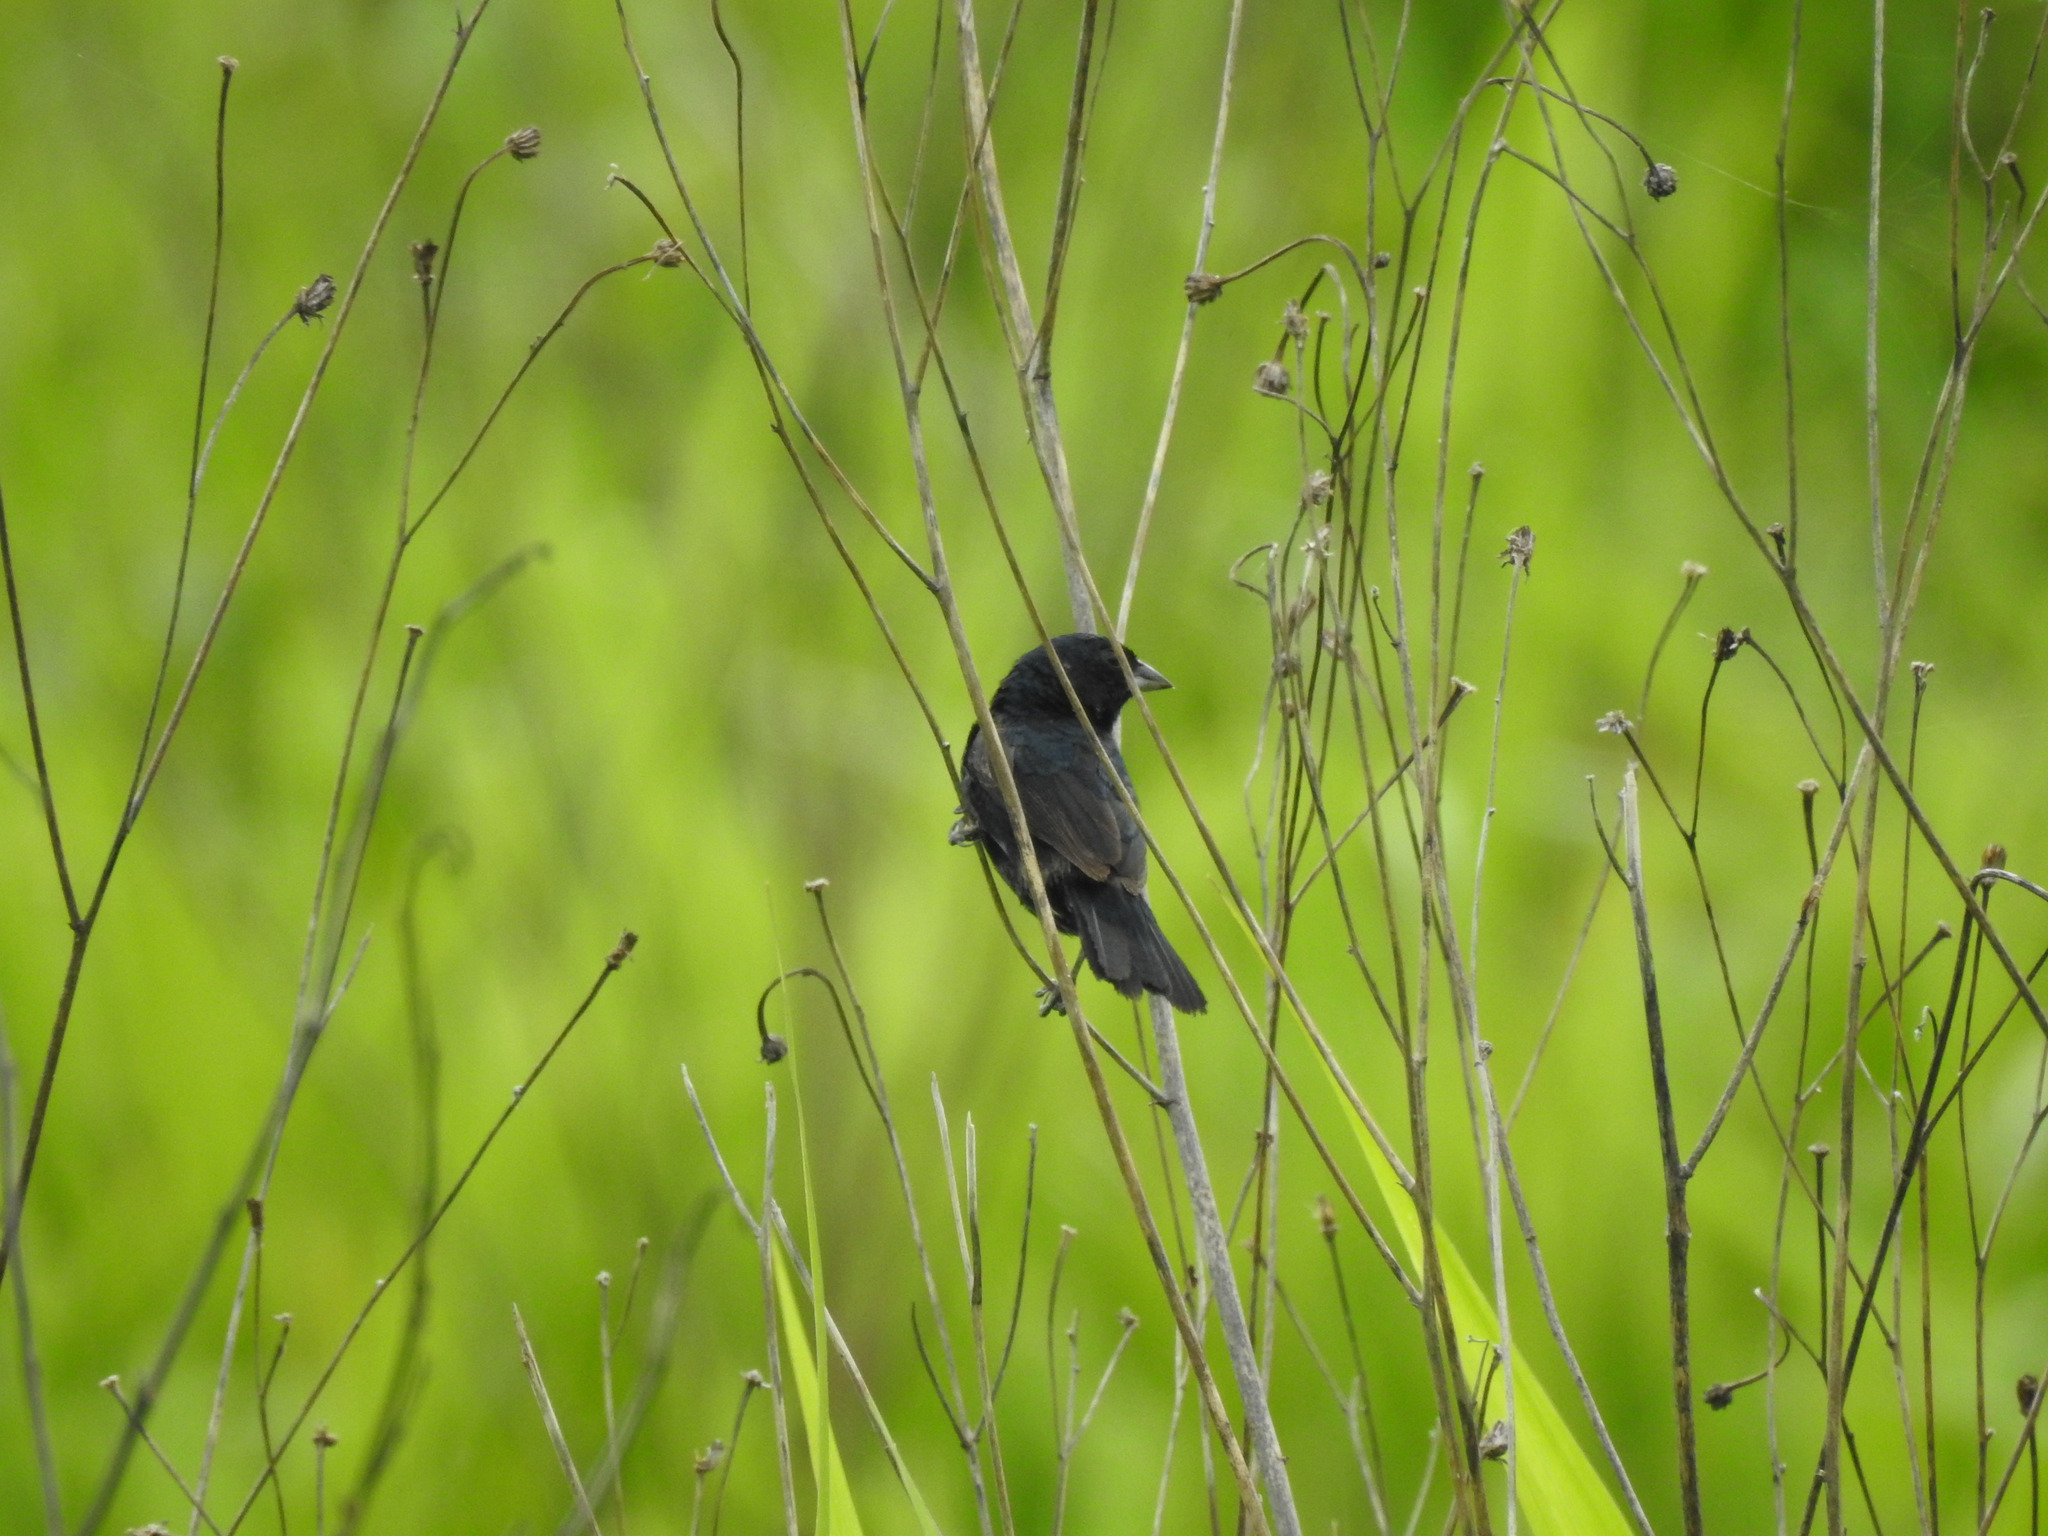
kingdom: Animalia
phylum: Chordata
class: Aves
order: Passeriformes
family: Thraupidae
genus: Volatinia
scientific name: Volatinia jacarina
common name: Blue-black grassquit
